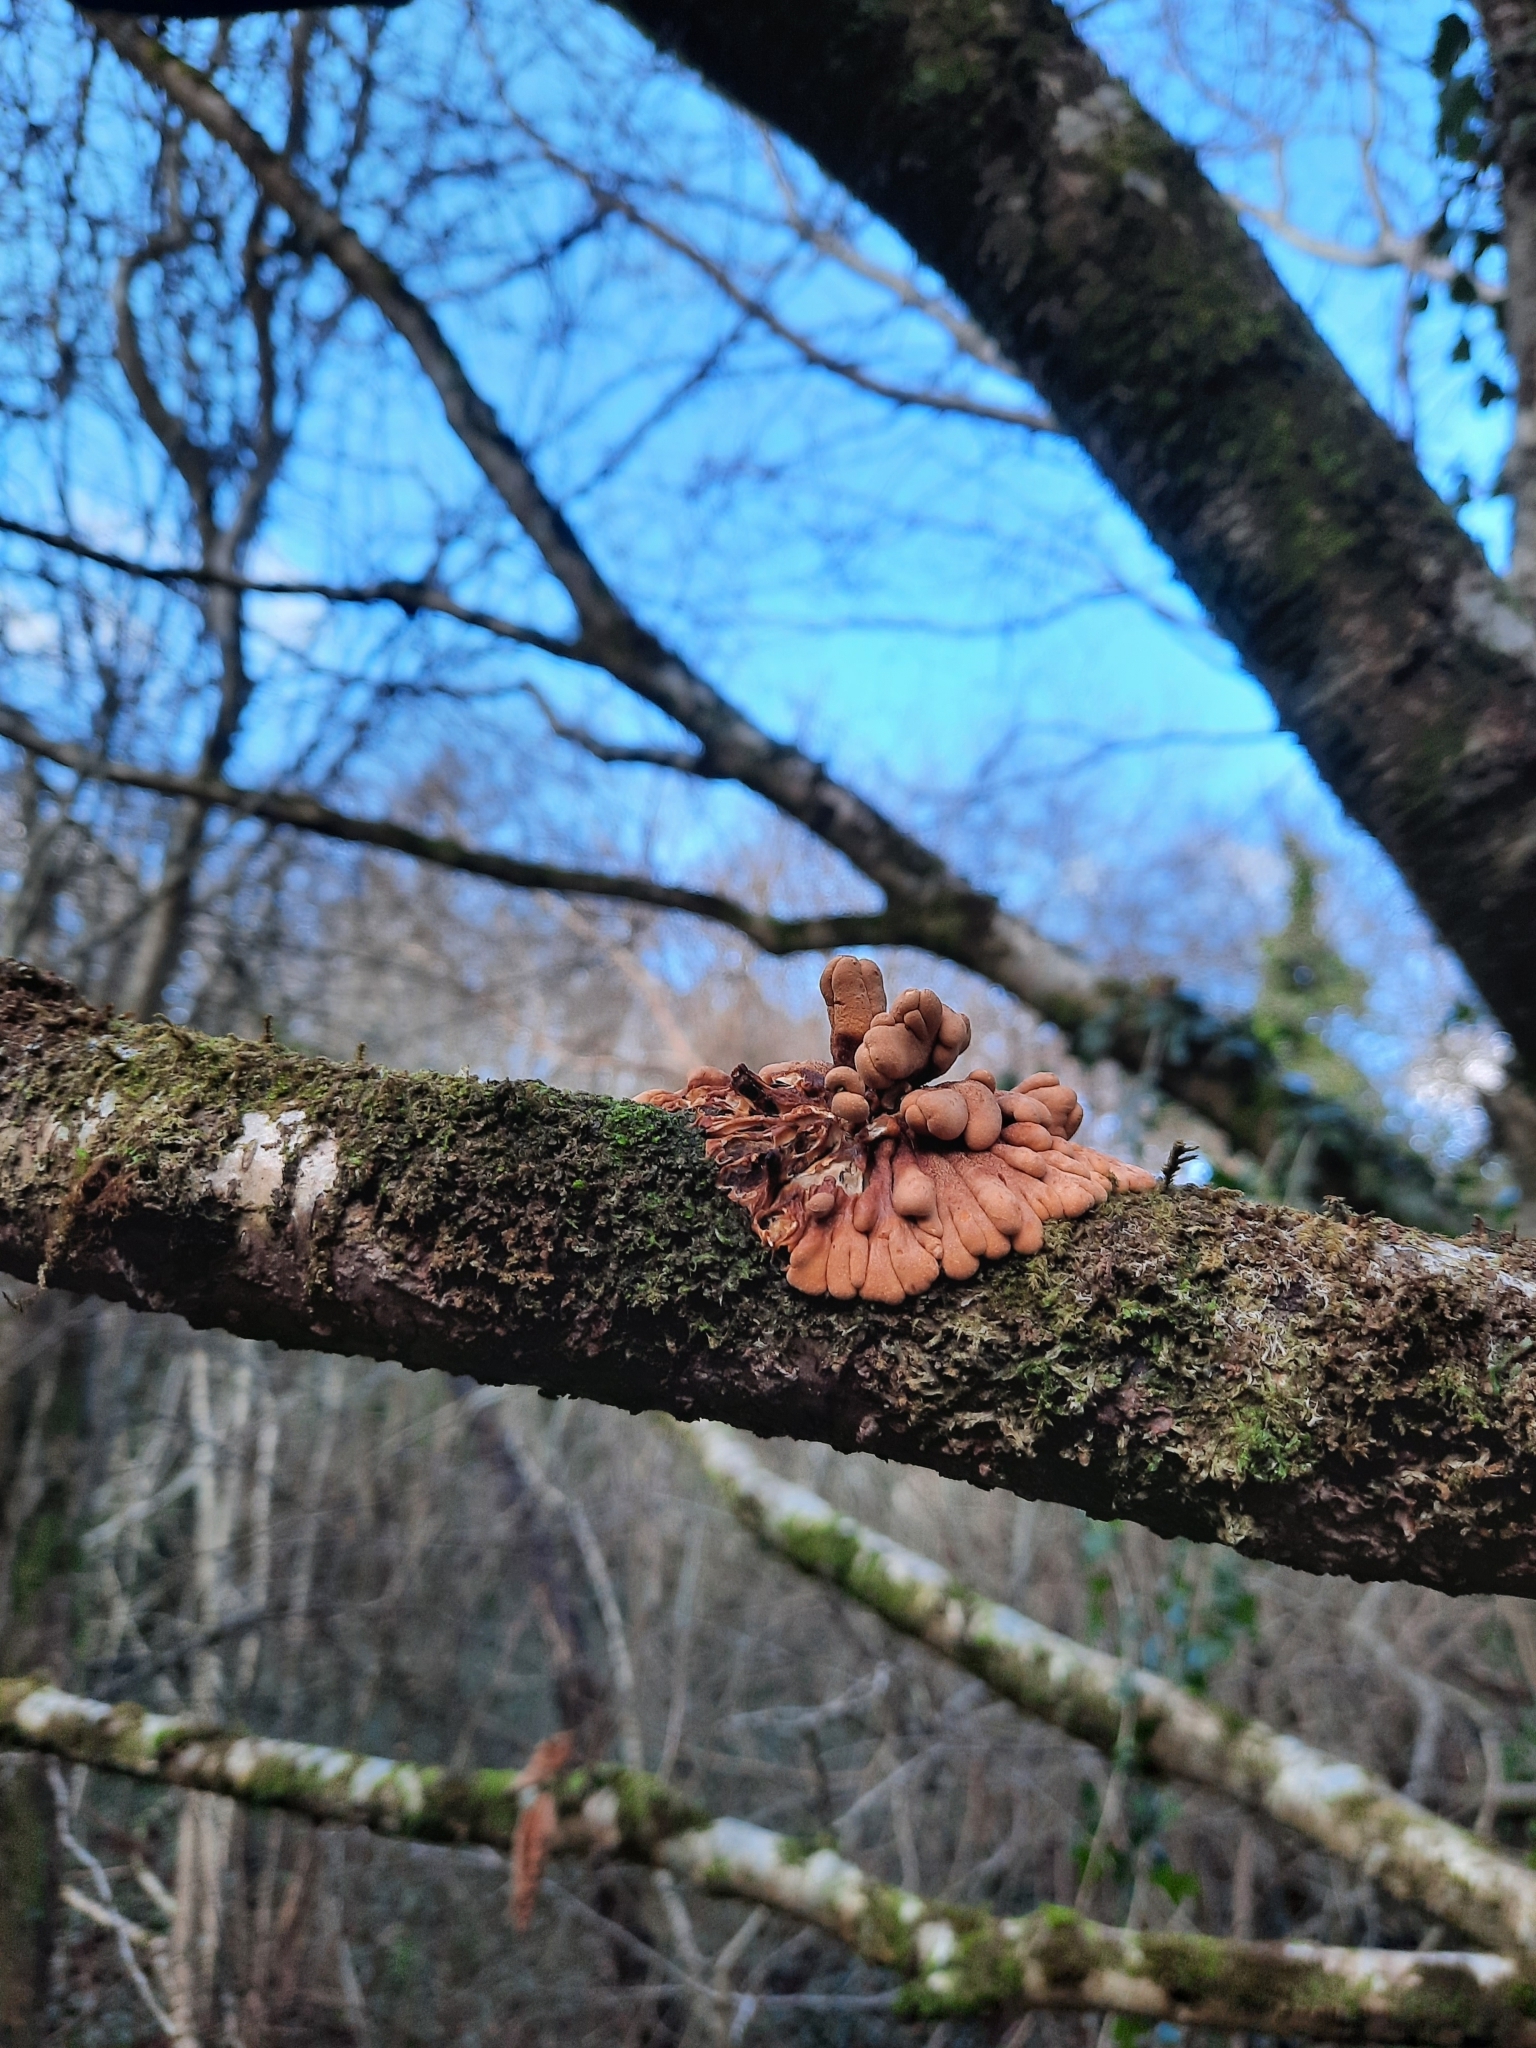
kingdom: Fungi
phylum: Ascomycota
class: Sordariomycetes
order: Hypocreales
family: Hypocreaceae
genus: Hypocreopsis
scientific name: Hypocreopsis rhododendri
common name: Hazel gloves
